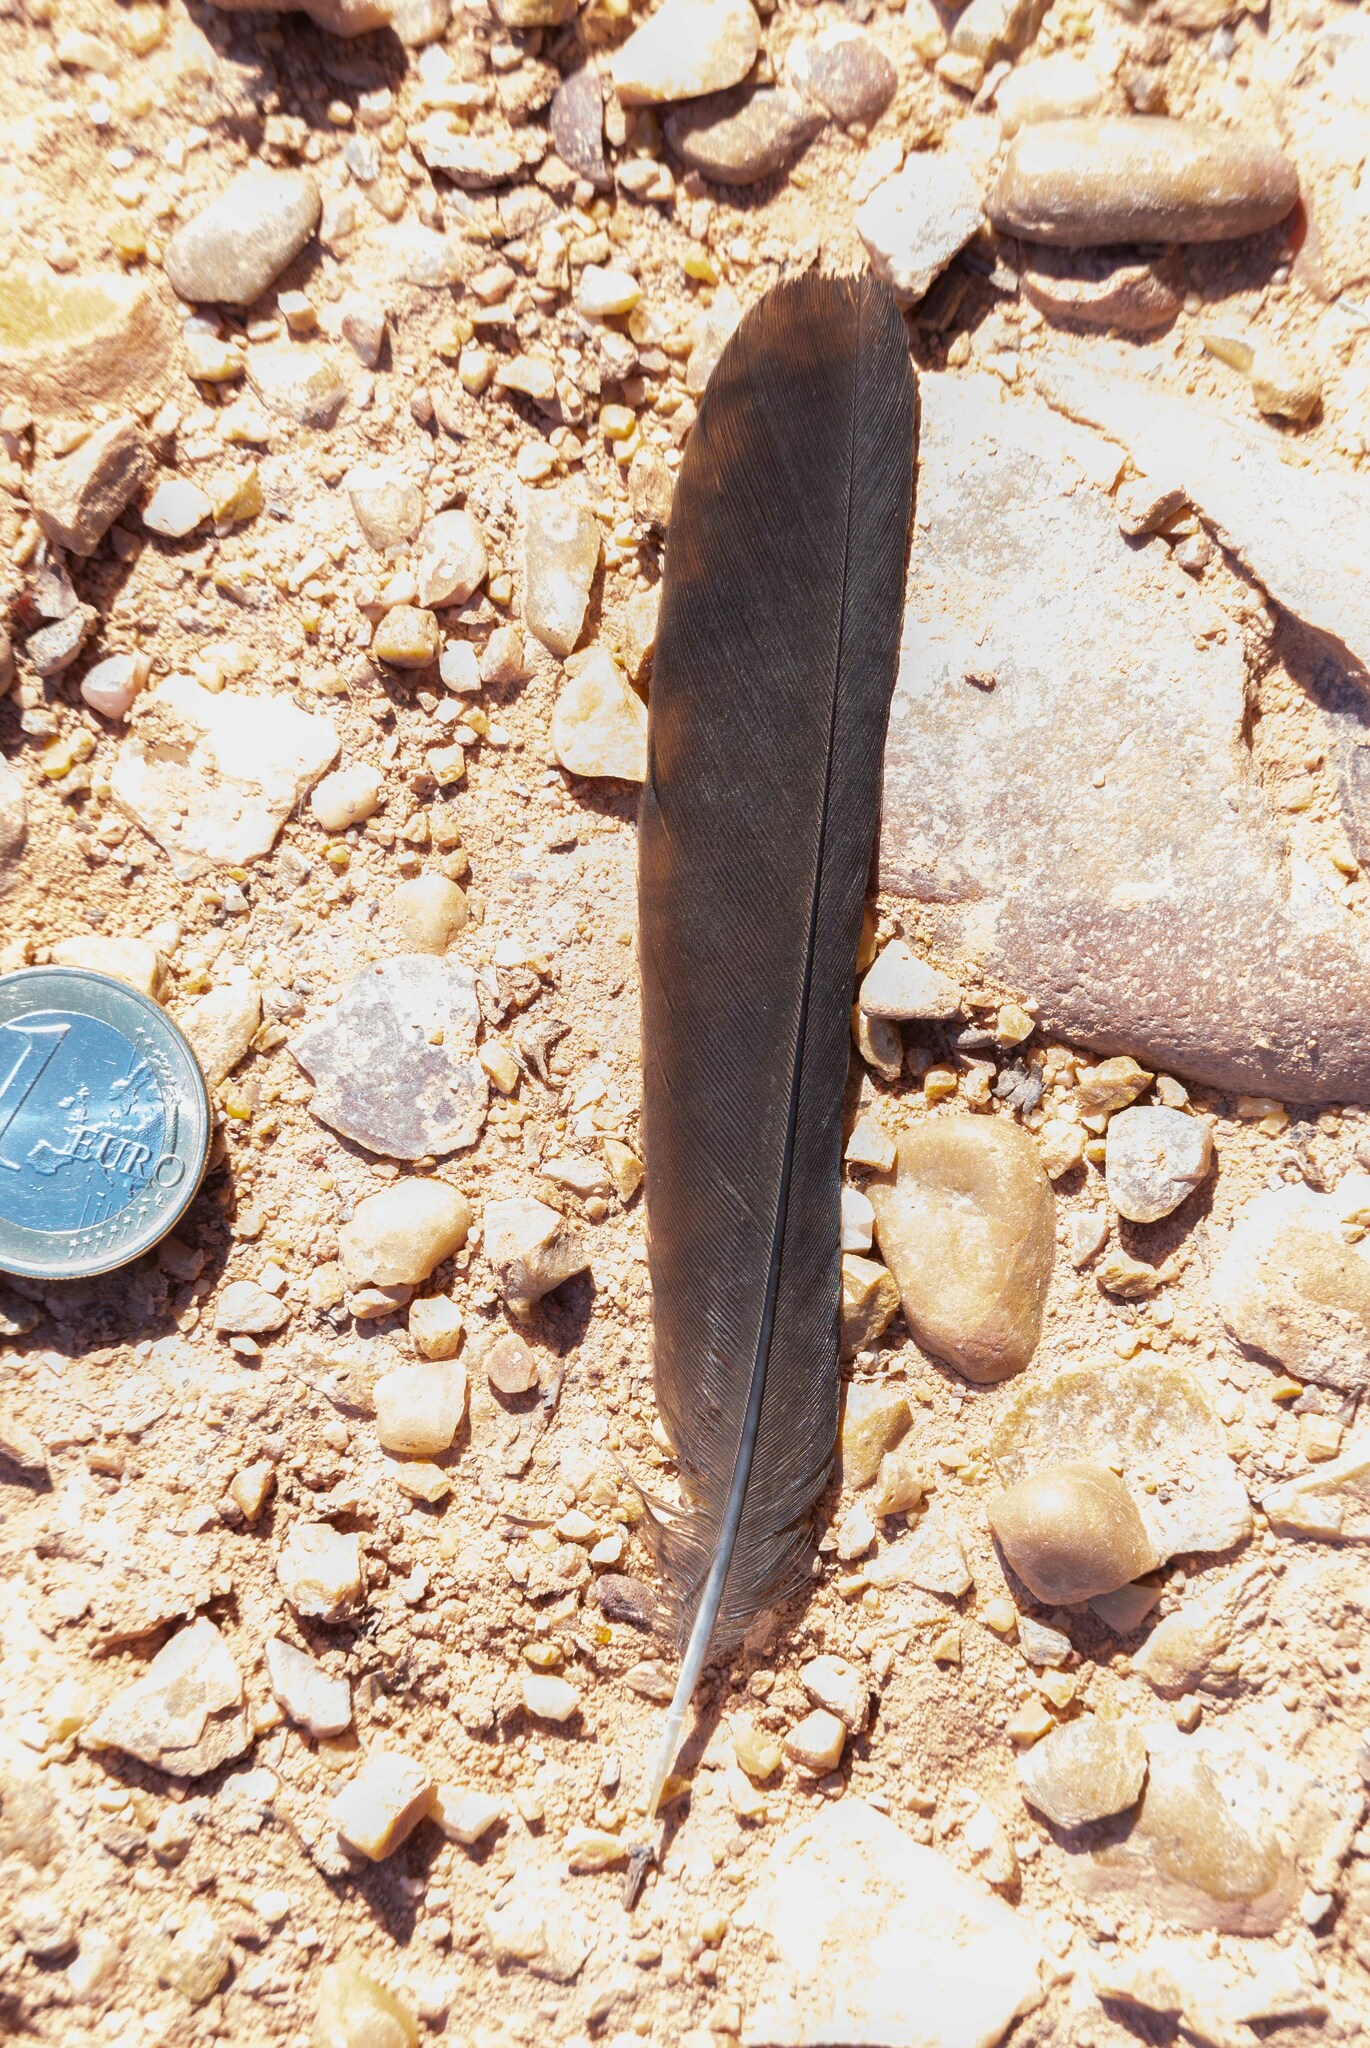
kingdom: Animalia
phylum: Chordata
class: Aves
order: Passeriformes
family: Turdidae
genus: Turdus
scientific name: Turdus merula
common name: Common blackbird
